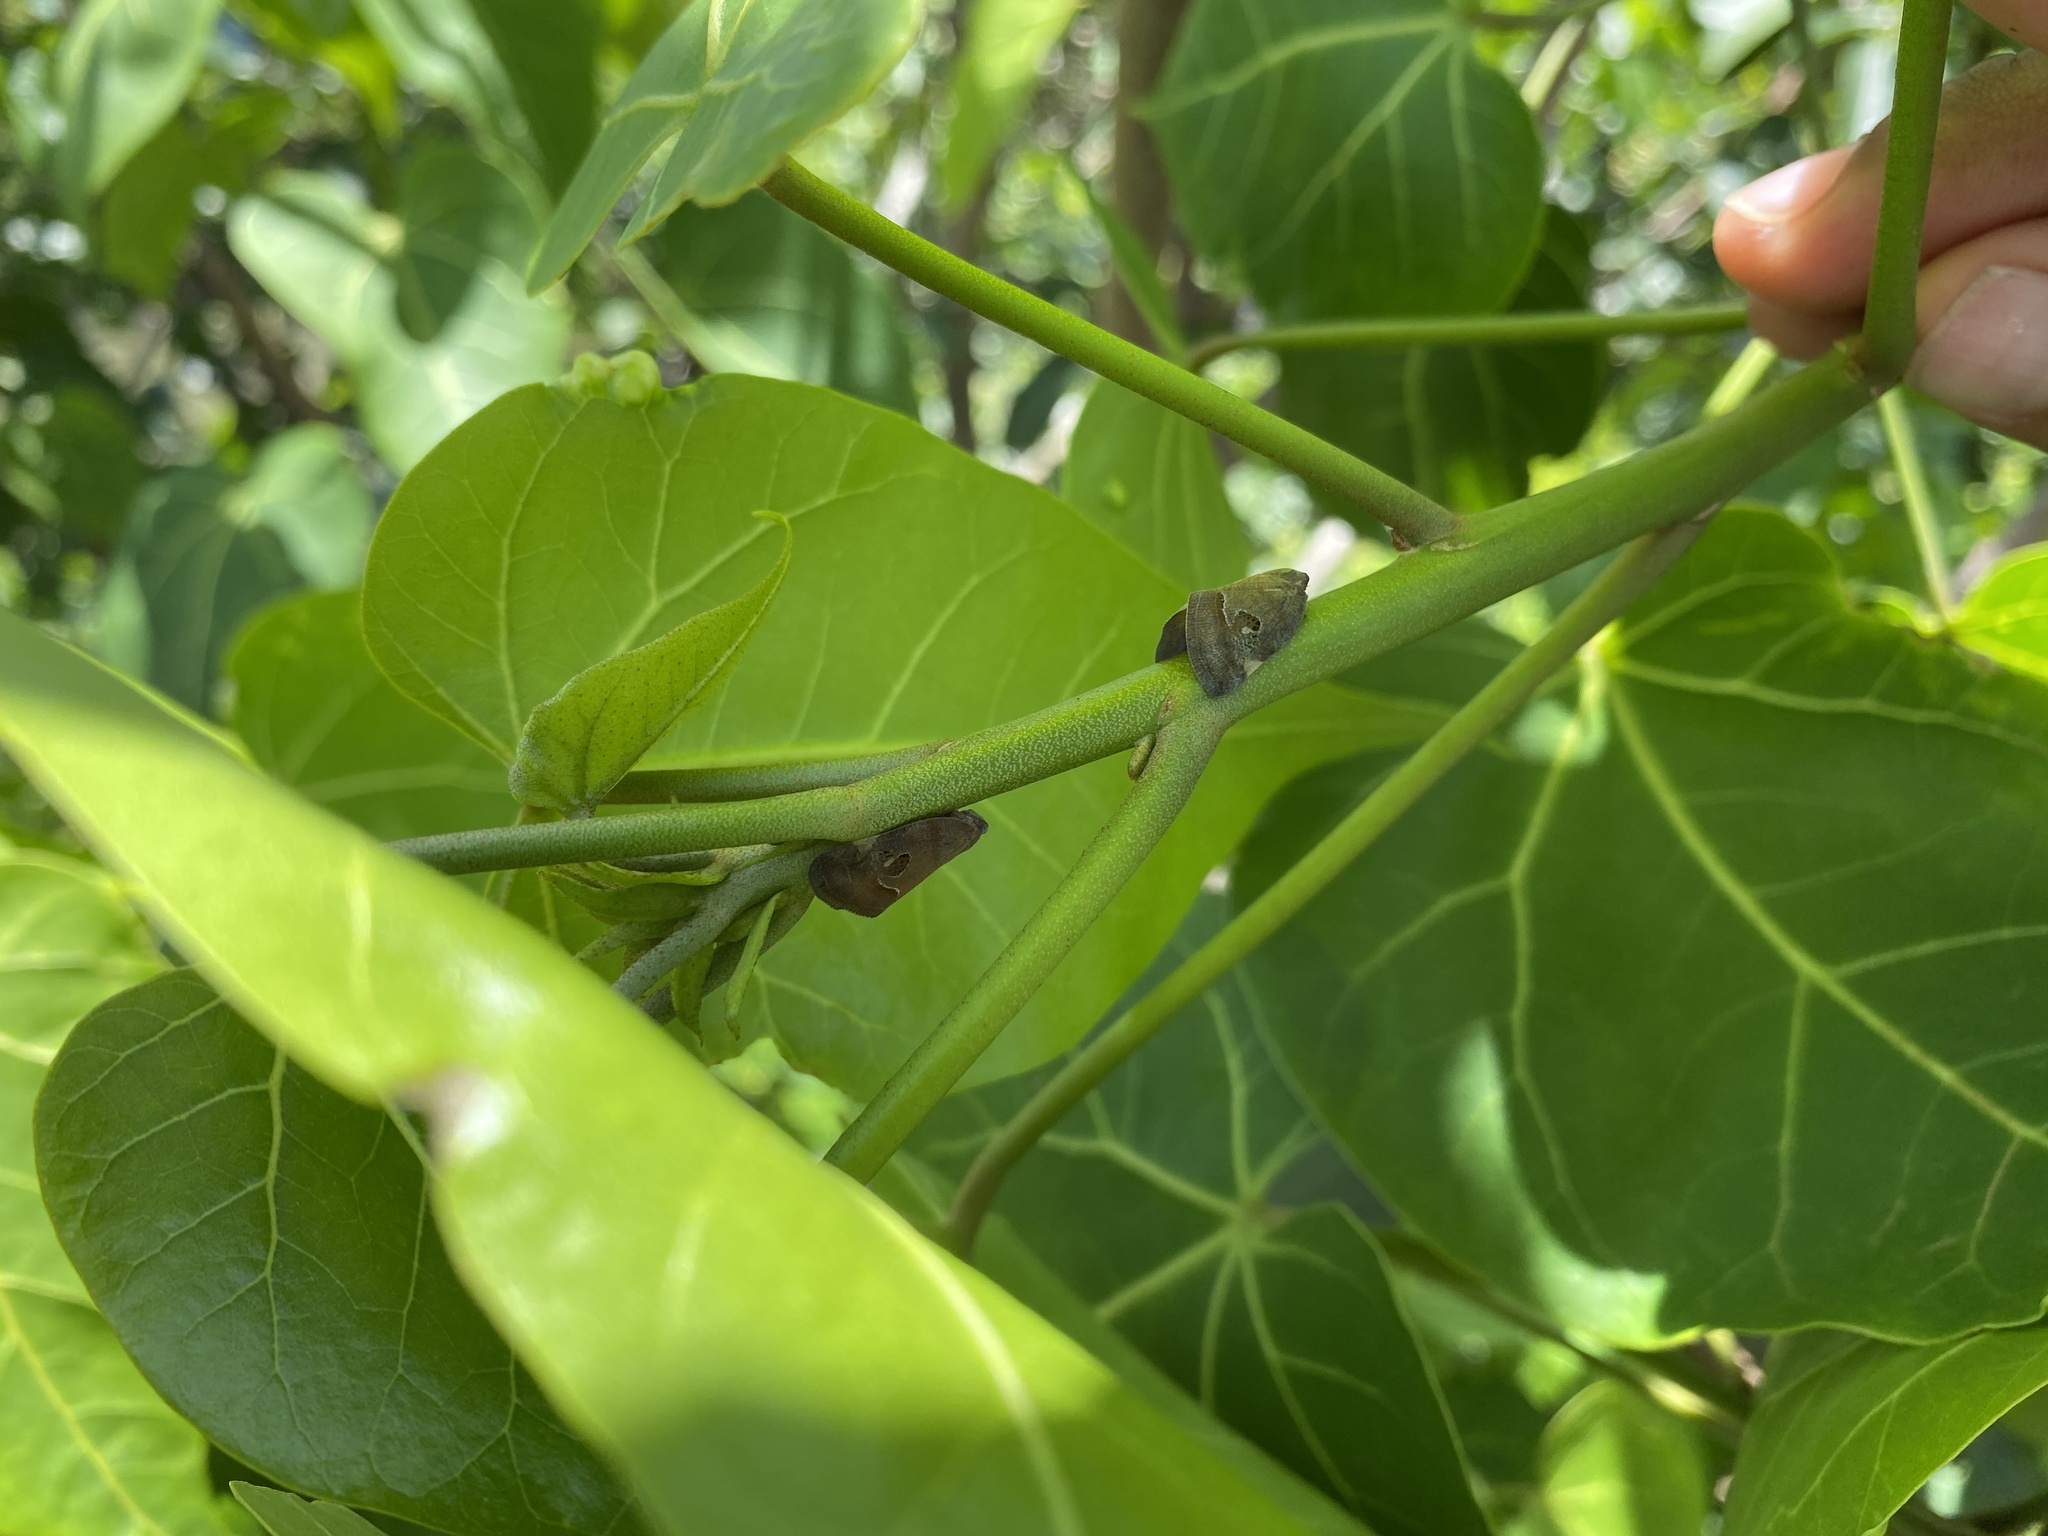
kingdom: Animalia
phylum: Arthropoda
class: Insecta
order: Hemiptera
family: Ricaniidae
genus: Ricania
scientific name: Ricania guttata
